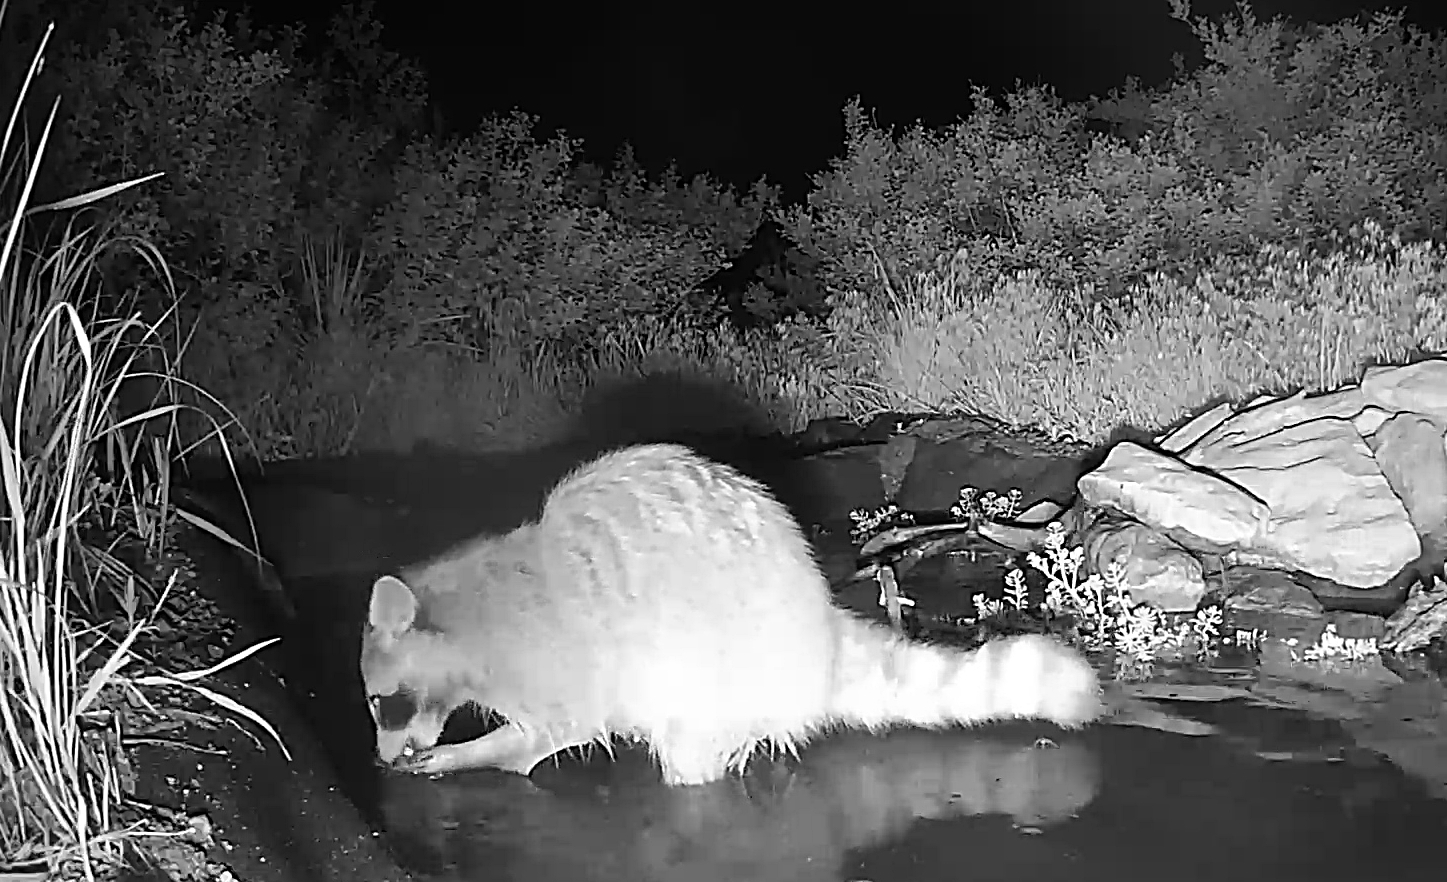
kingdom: Animalia
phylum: Chordata
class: Mammalia
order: Carnivora
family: Procyonidae
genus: Procyon
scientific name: Procyon lotor
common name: Raccoon
